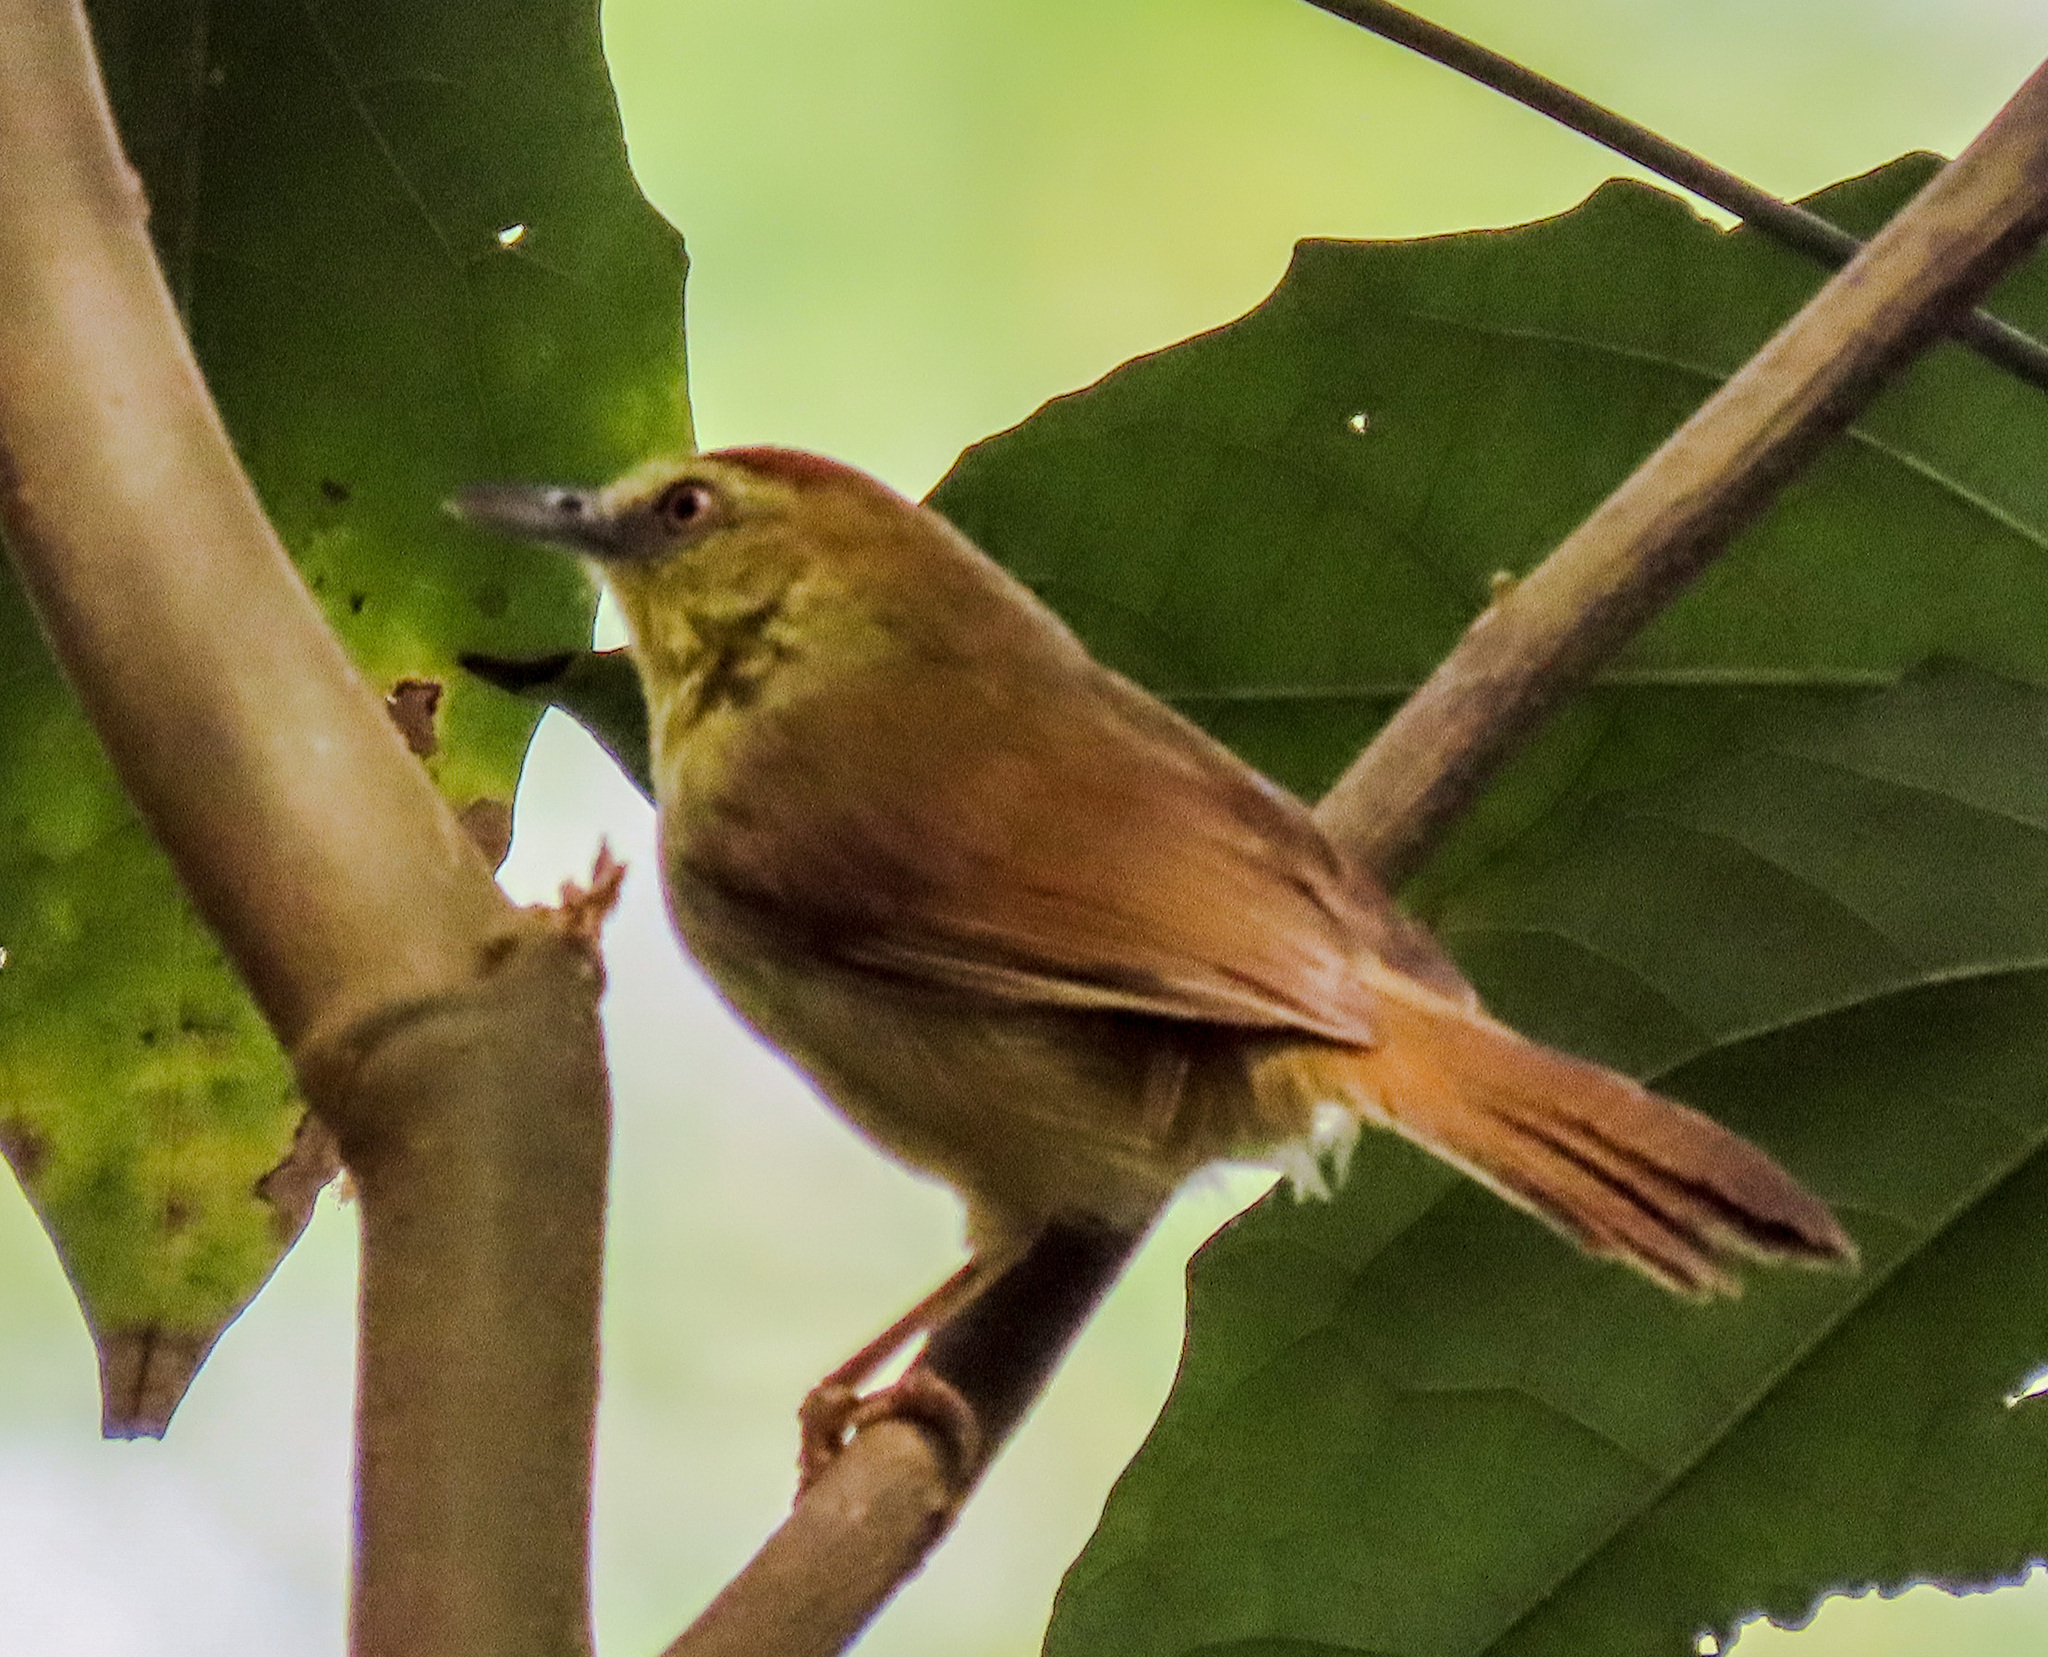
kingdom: Animalia
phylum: Chordata
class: Aves
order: Passeriformes
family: Timaliidae
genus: Macronus
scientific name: Macronus gularis
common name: Striped tit-babbler
